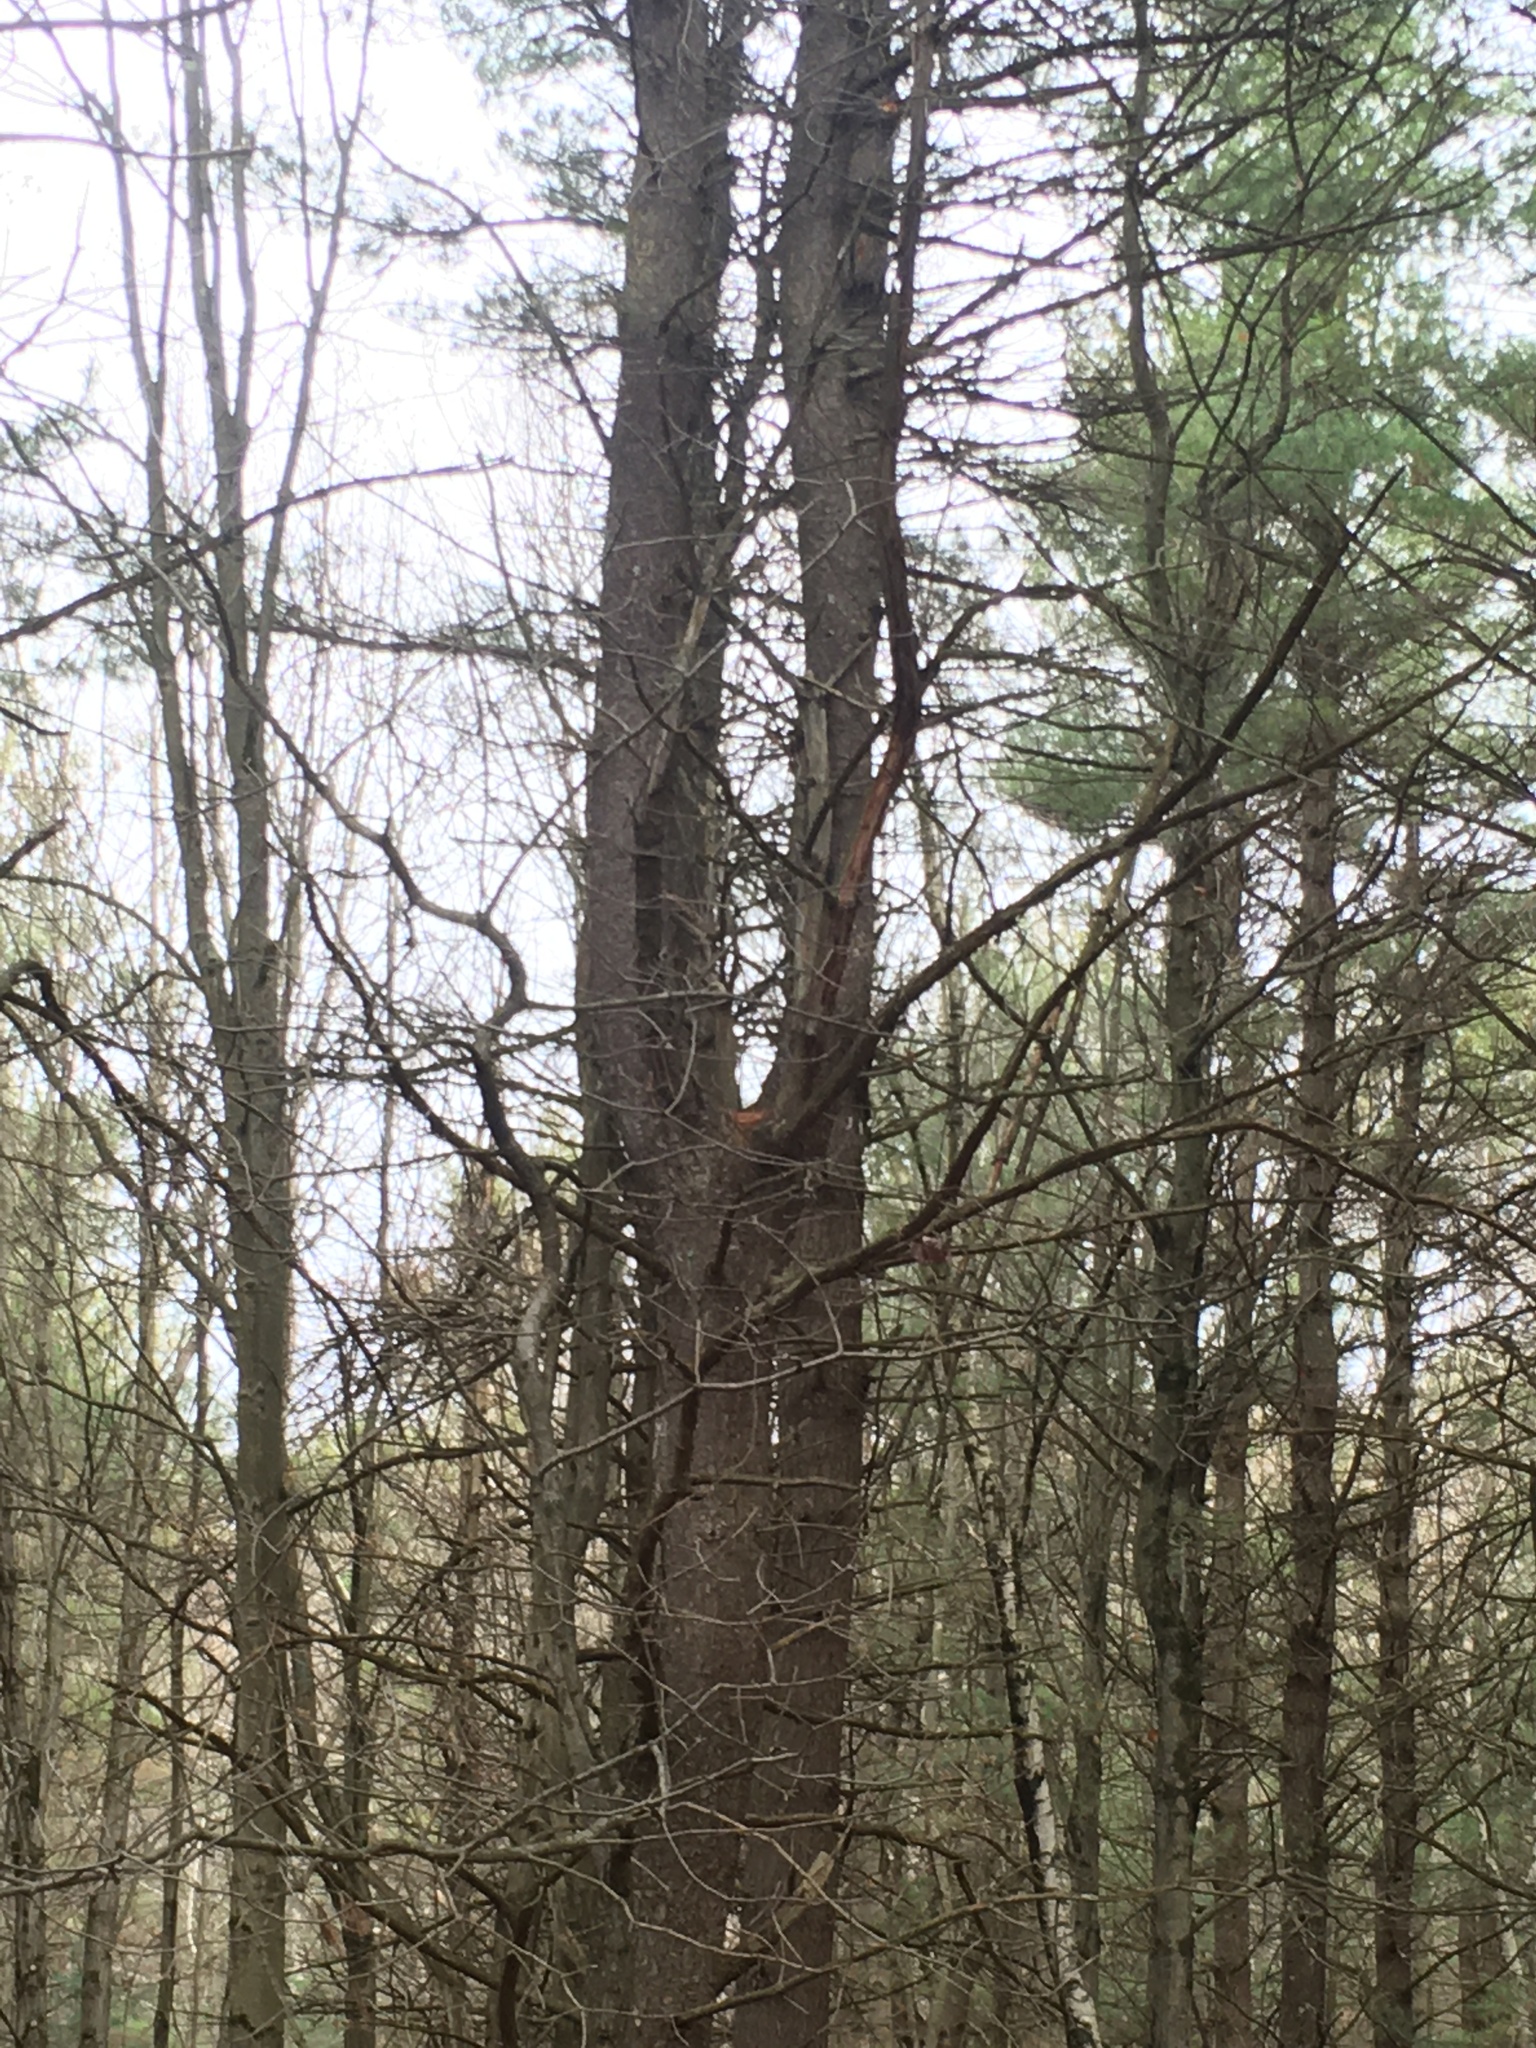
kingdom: Animalia
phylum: Arthropoda
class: Insecta
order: Coleoptera
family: Curculionidae
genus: Pissodes
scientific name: Pissodes strobi
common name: White pine weevil
